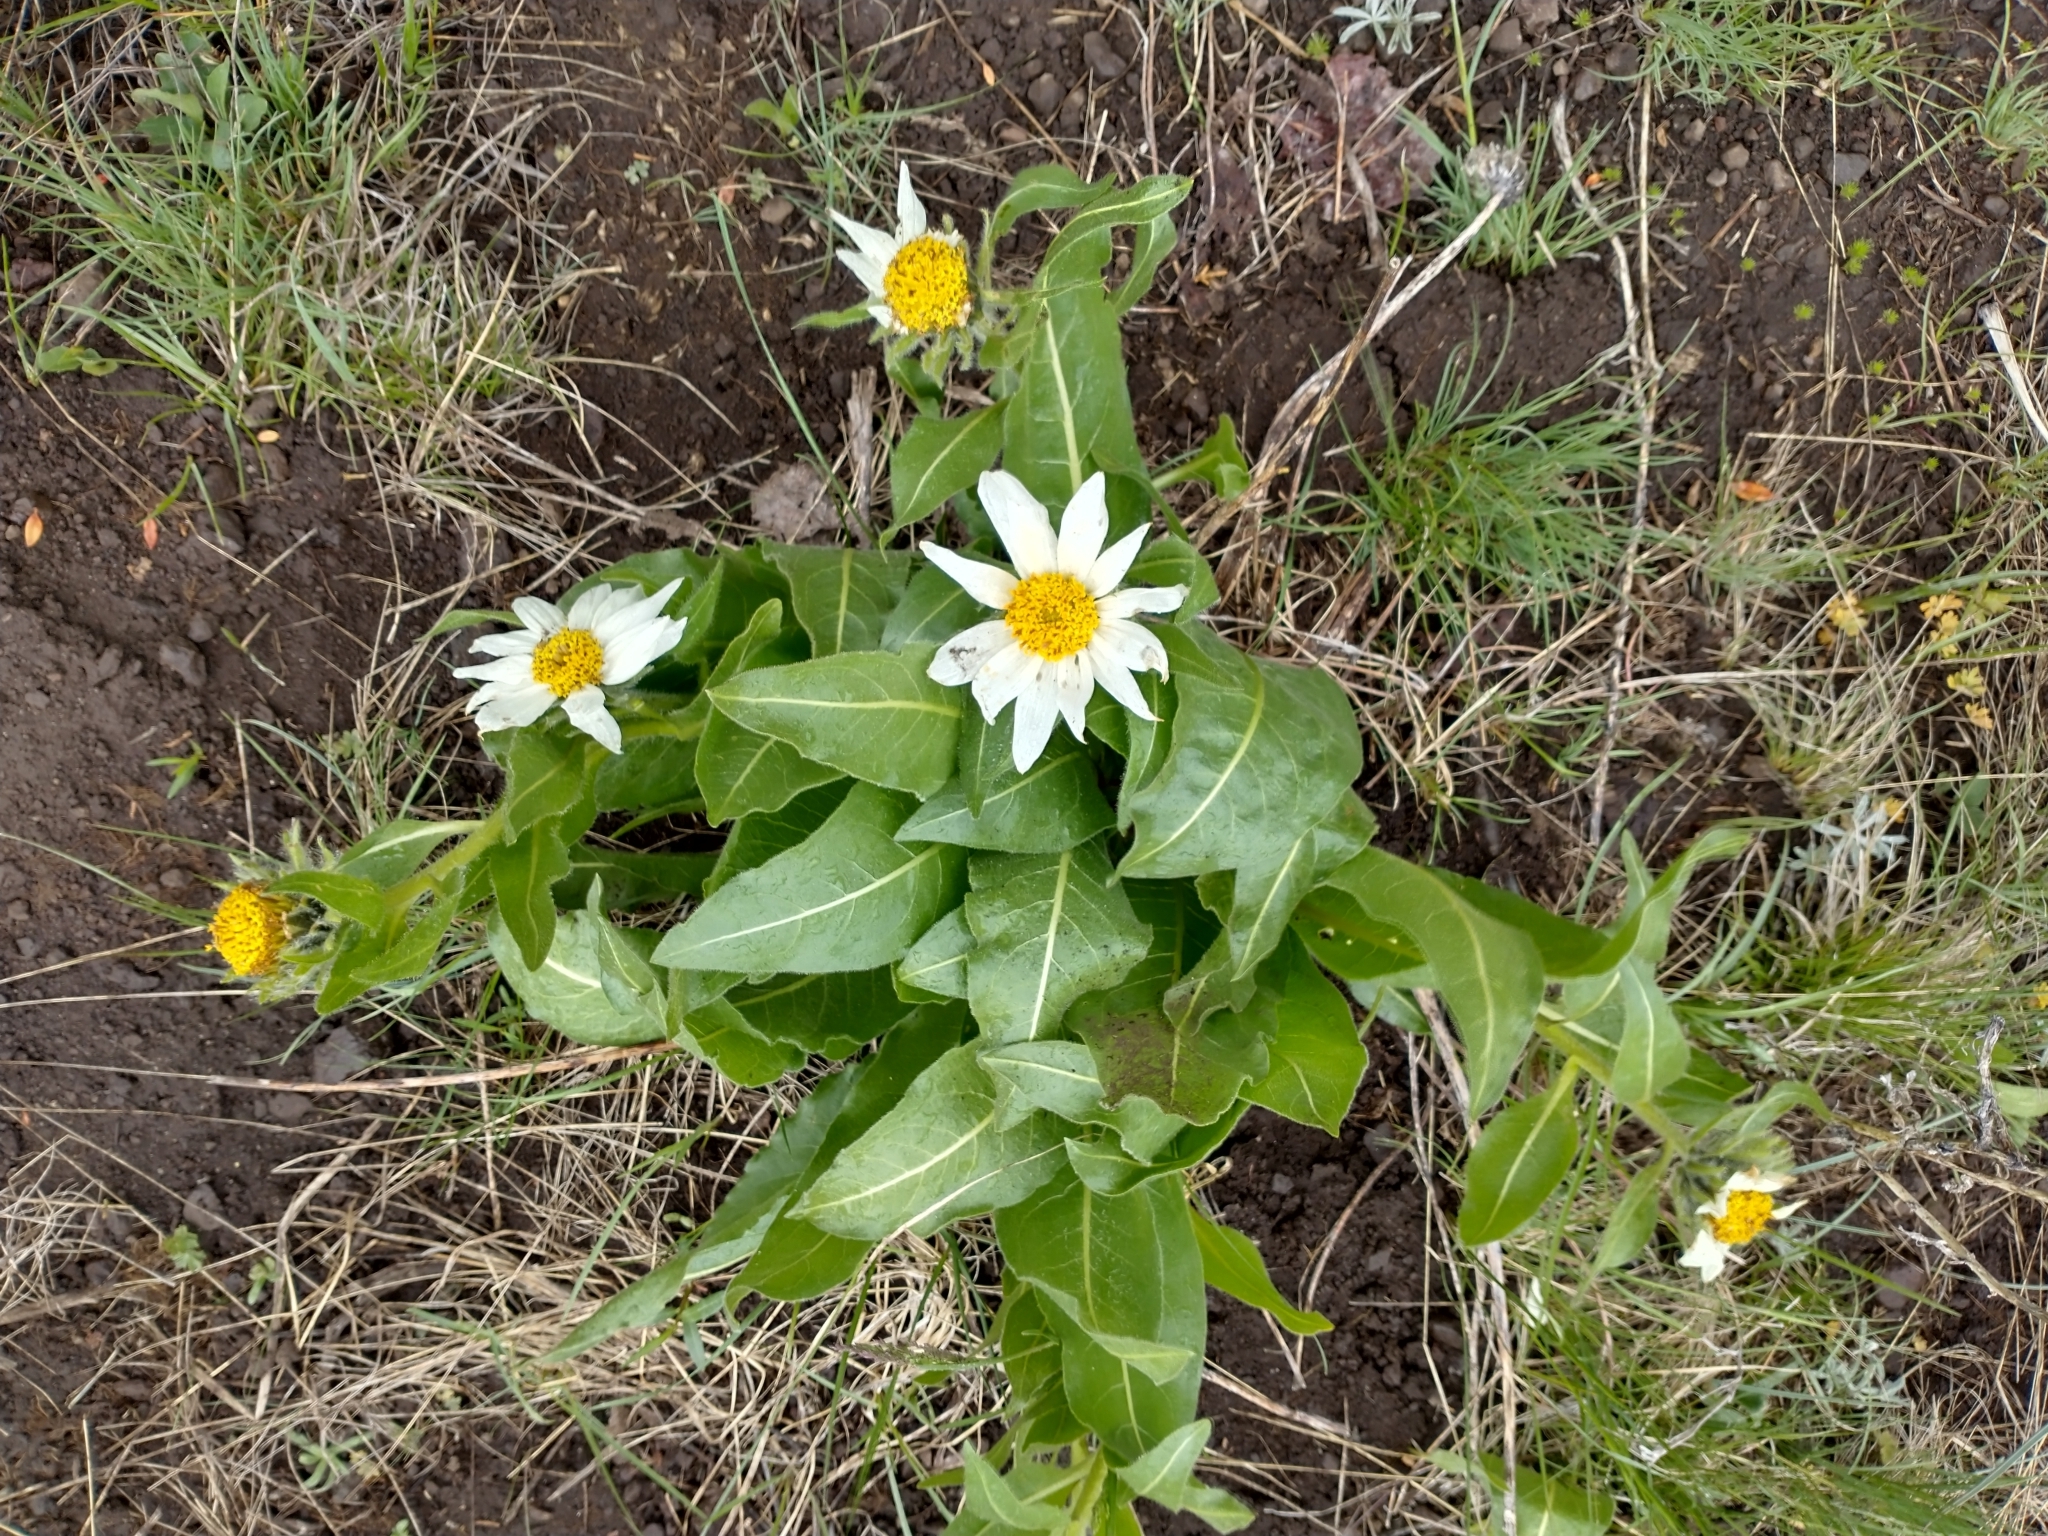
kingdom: Plantae
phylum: Tracheophyta
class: Magnoliopsida
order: Asterales
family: Asteraceae
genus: Wyethia
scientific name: Wyethia helianthoides
